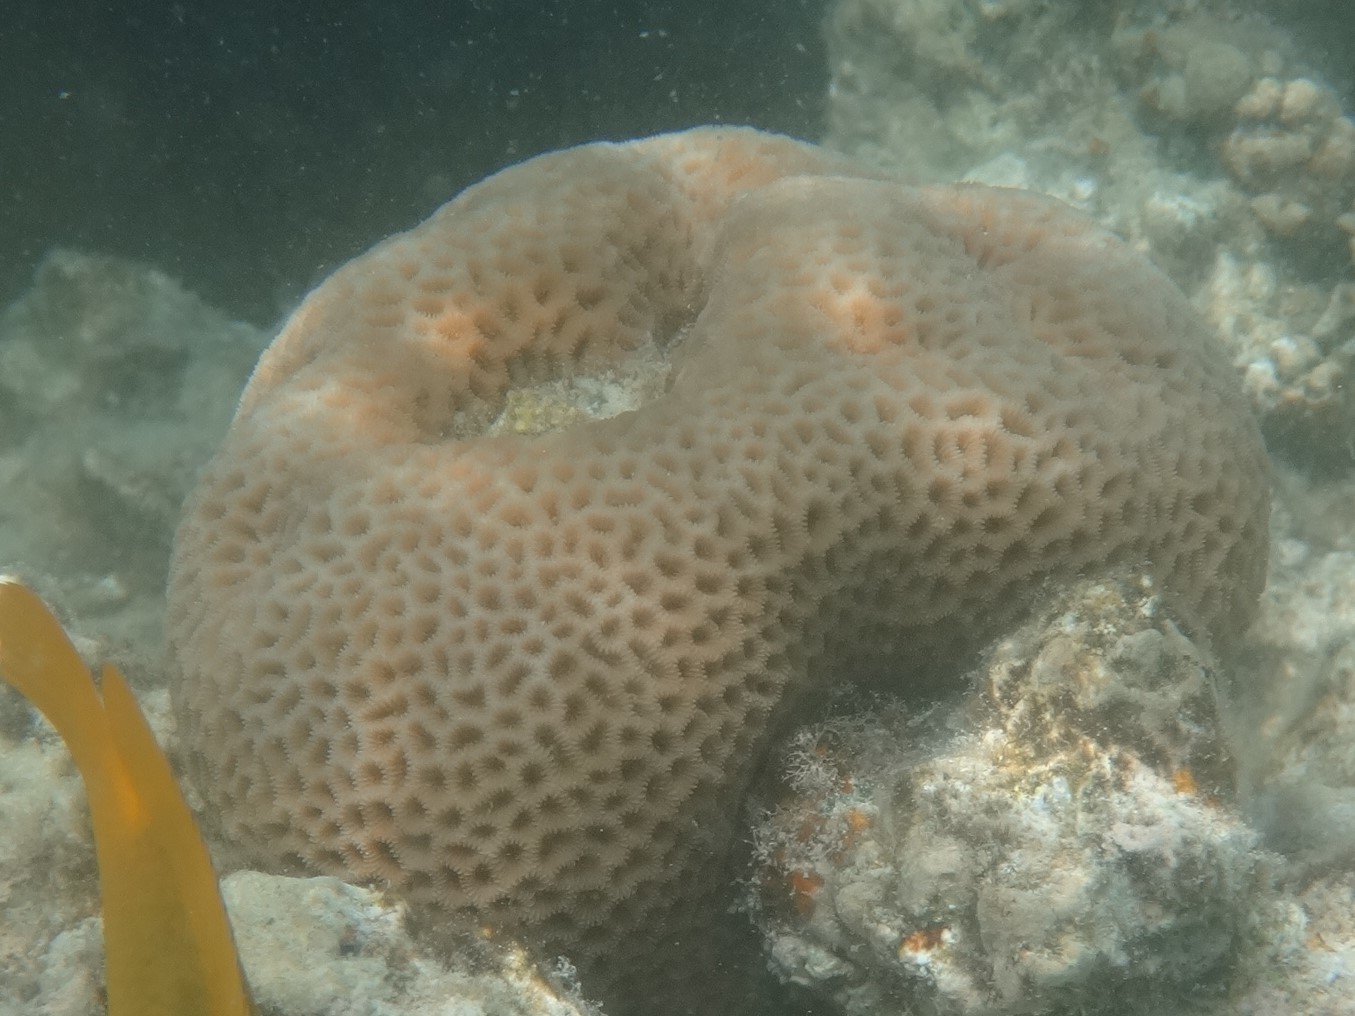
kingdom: Animalia
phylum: Cnidaria
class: Anthozoa
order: Scleractinia
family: Merulinidae
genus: Goniastrea
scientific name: Goniastrea pectinata
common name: Lesser star coral
